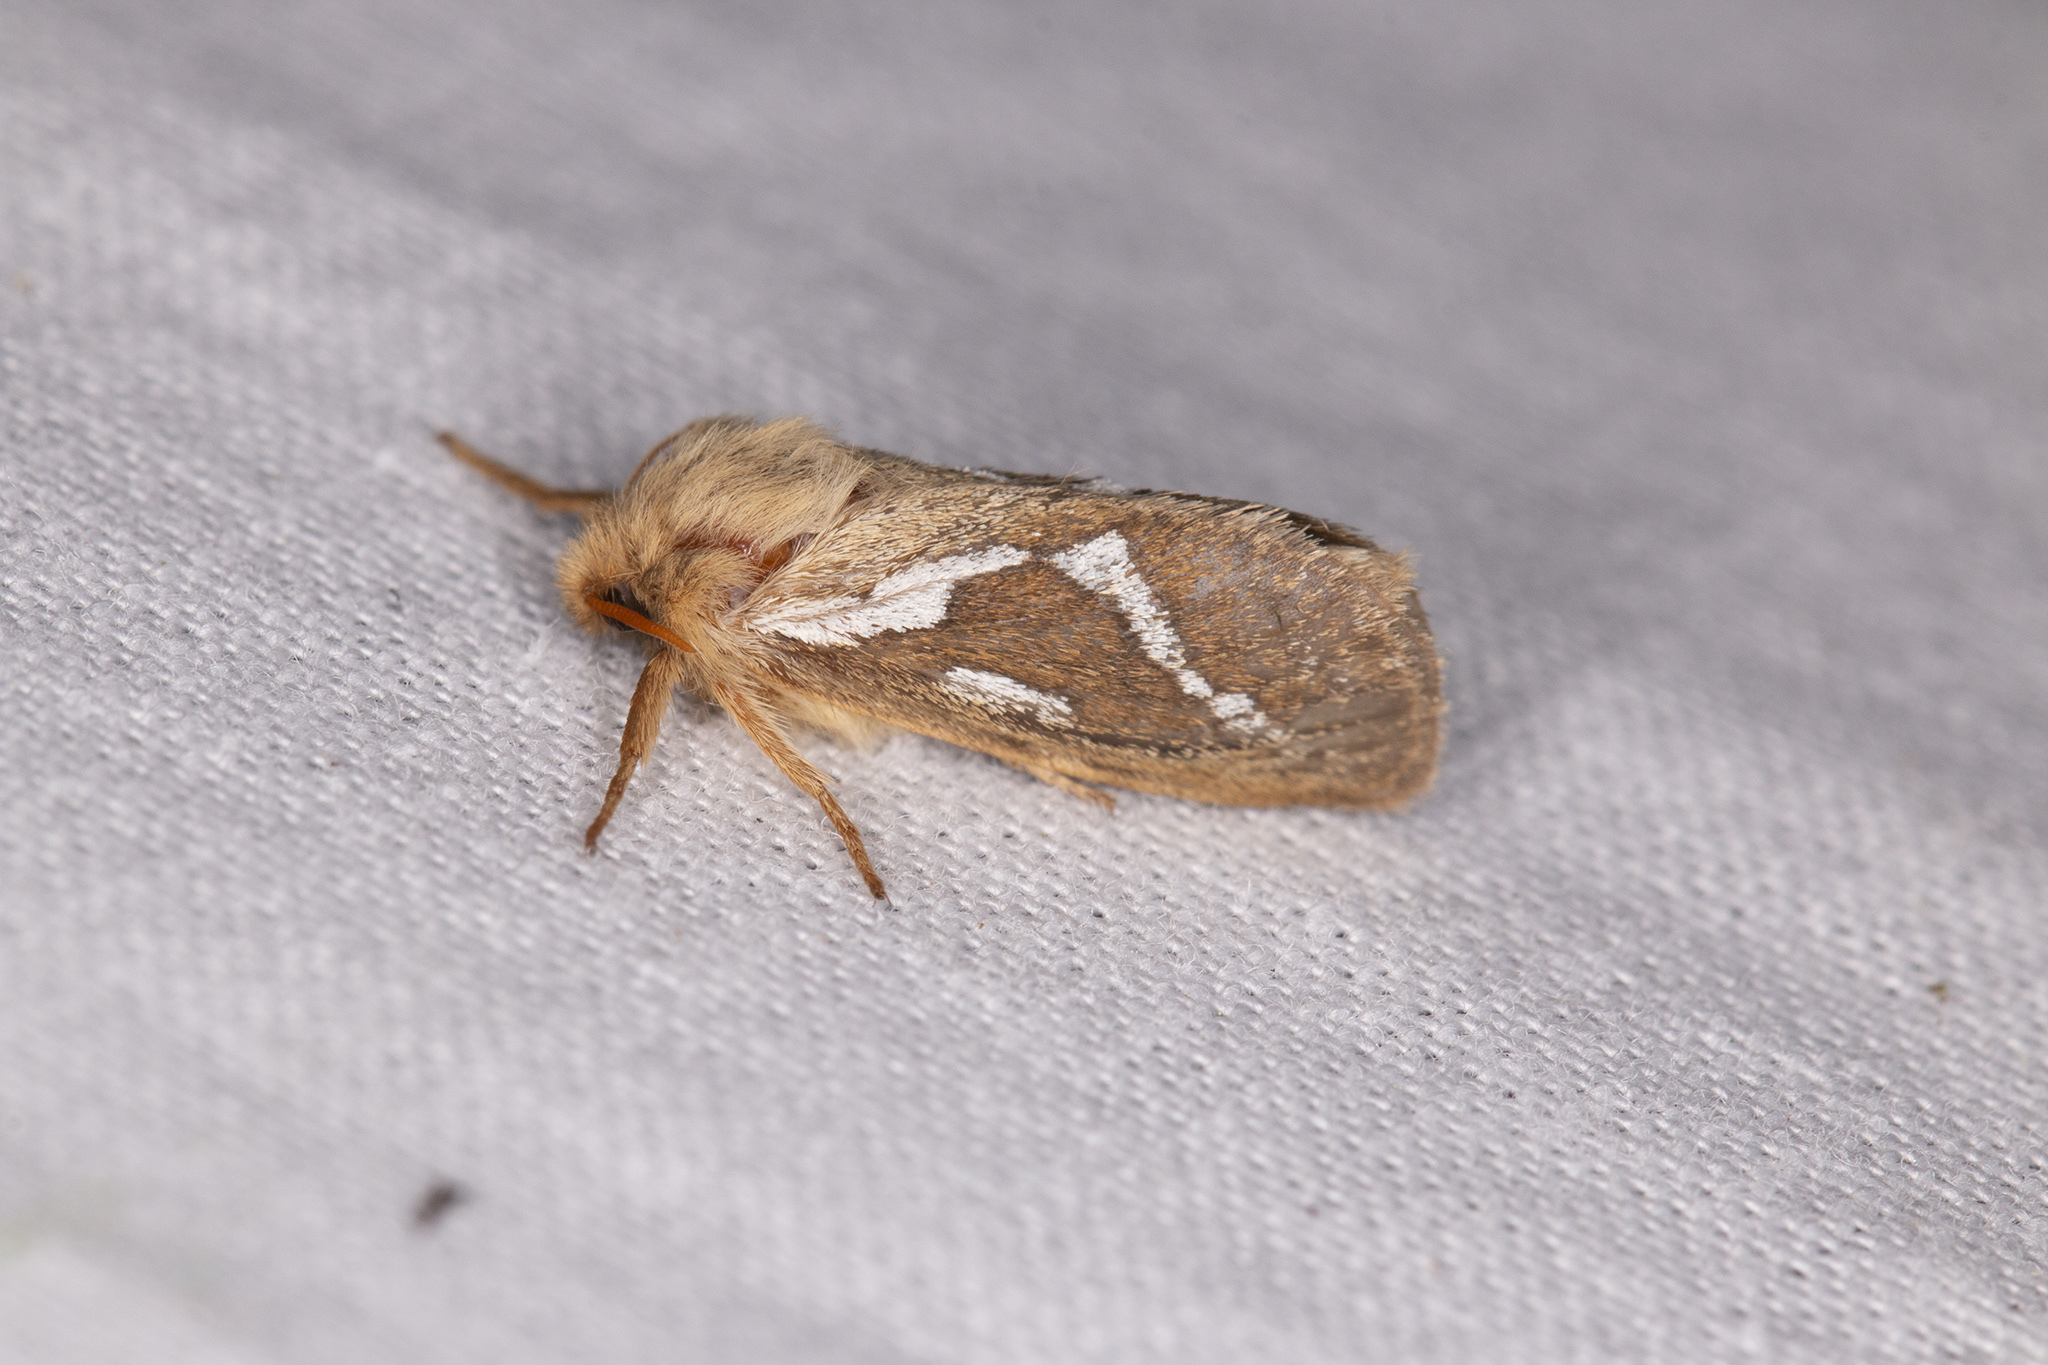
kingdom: Animalia
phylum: Arthropoda
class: Insecta
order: Lepidoptera
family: Hepialidae
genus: Korscheltellus
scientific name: Korscheltellus lupulina
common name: Common swift
